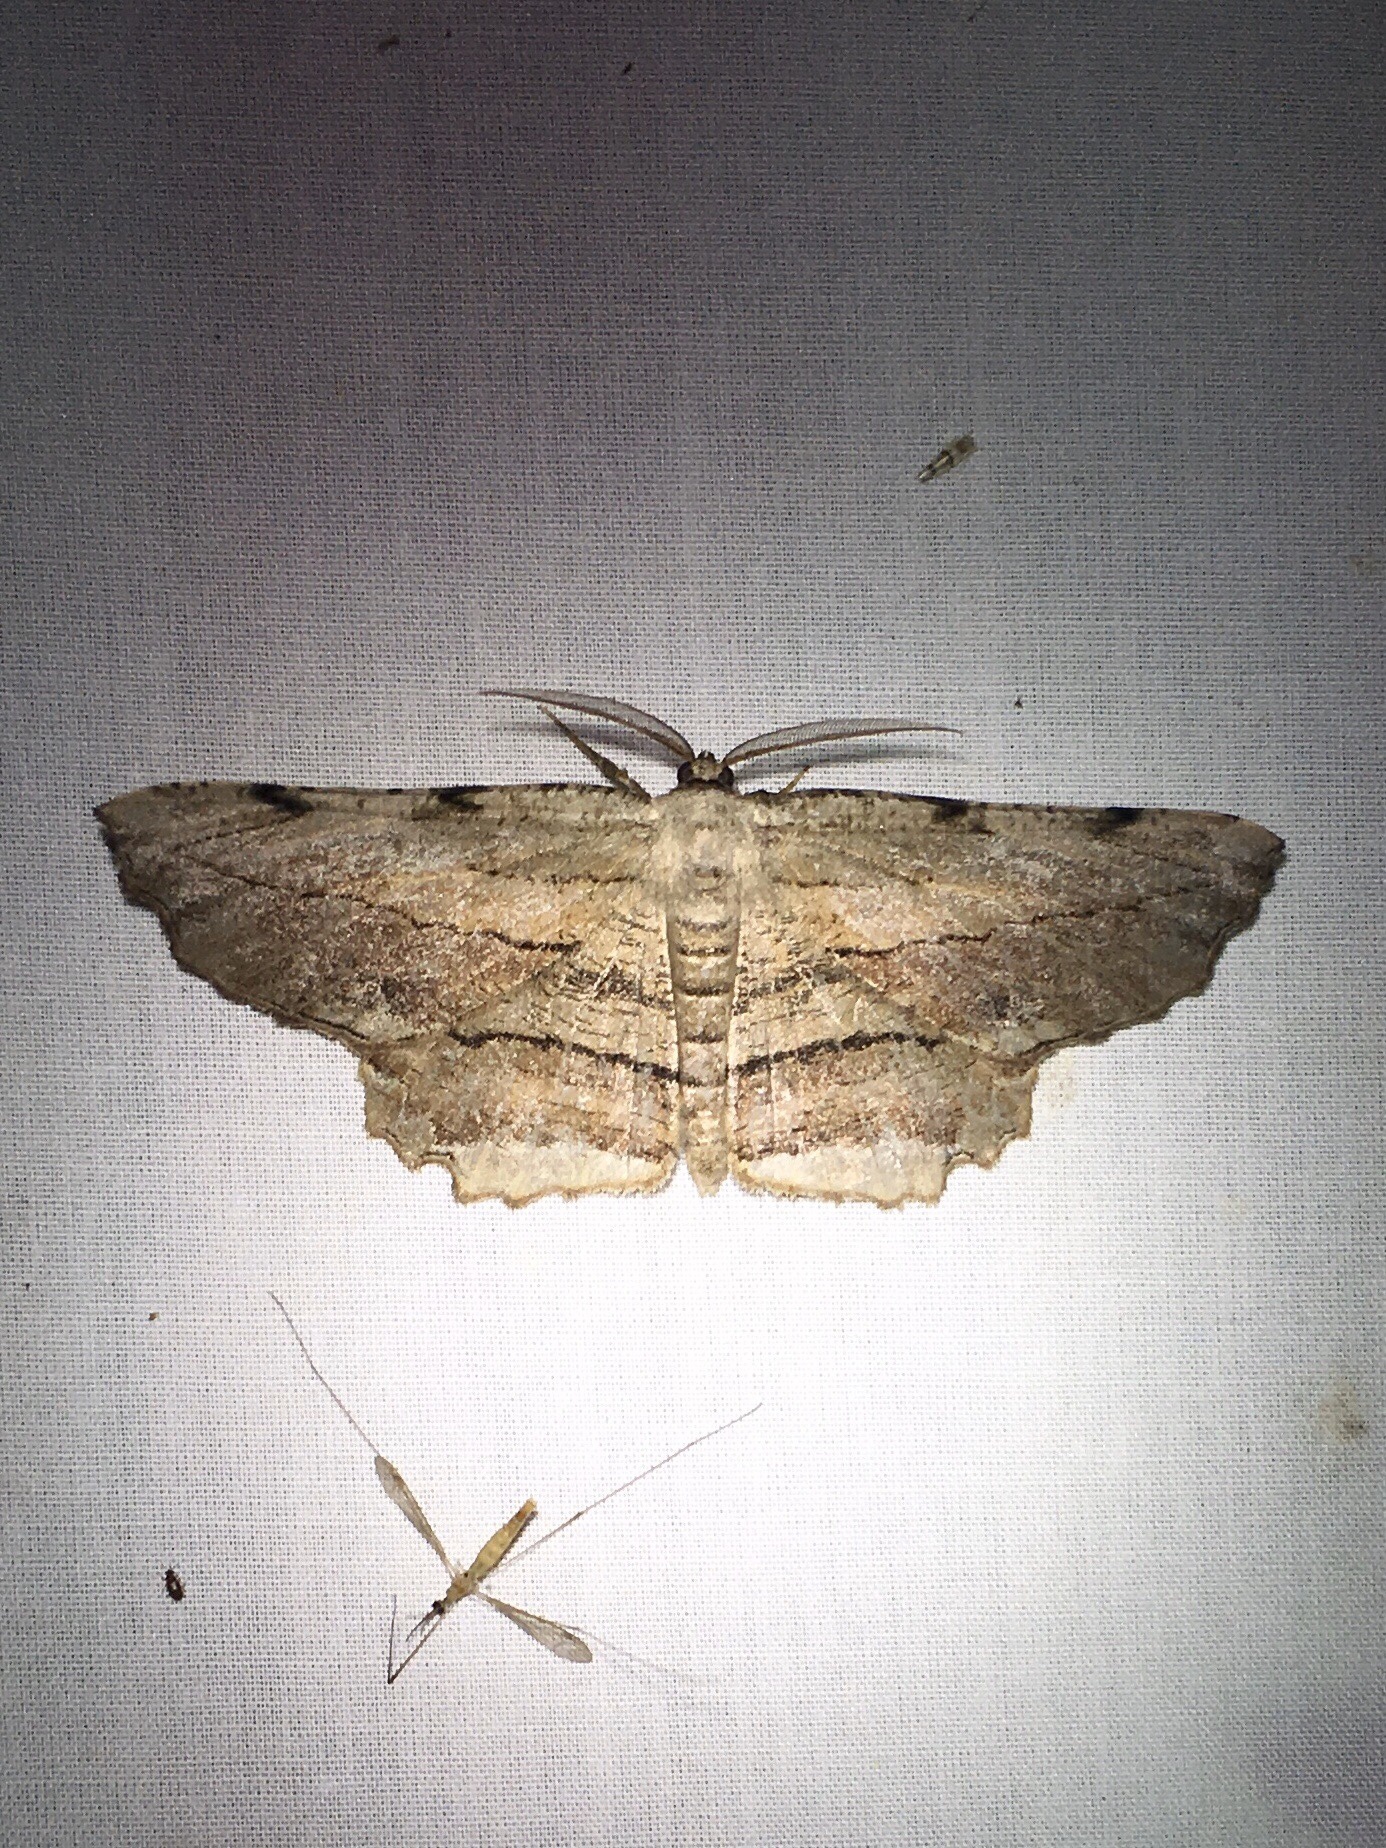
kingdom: Animalia
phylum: Arthropoda
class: Insecta
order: Lepidoptera
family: Geometridae
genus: Lytrosis
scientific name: Lytrosis unitaria
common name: Common lytrosis
